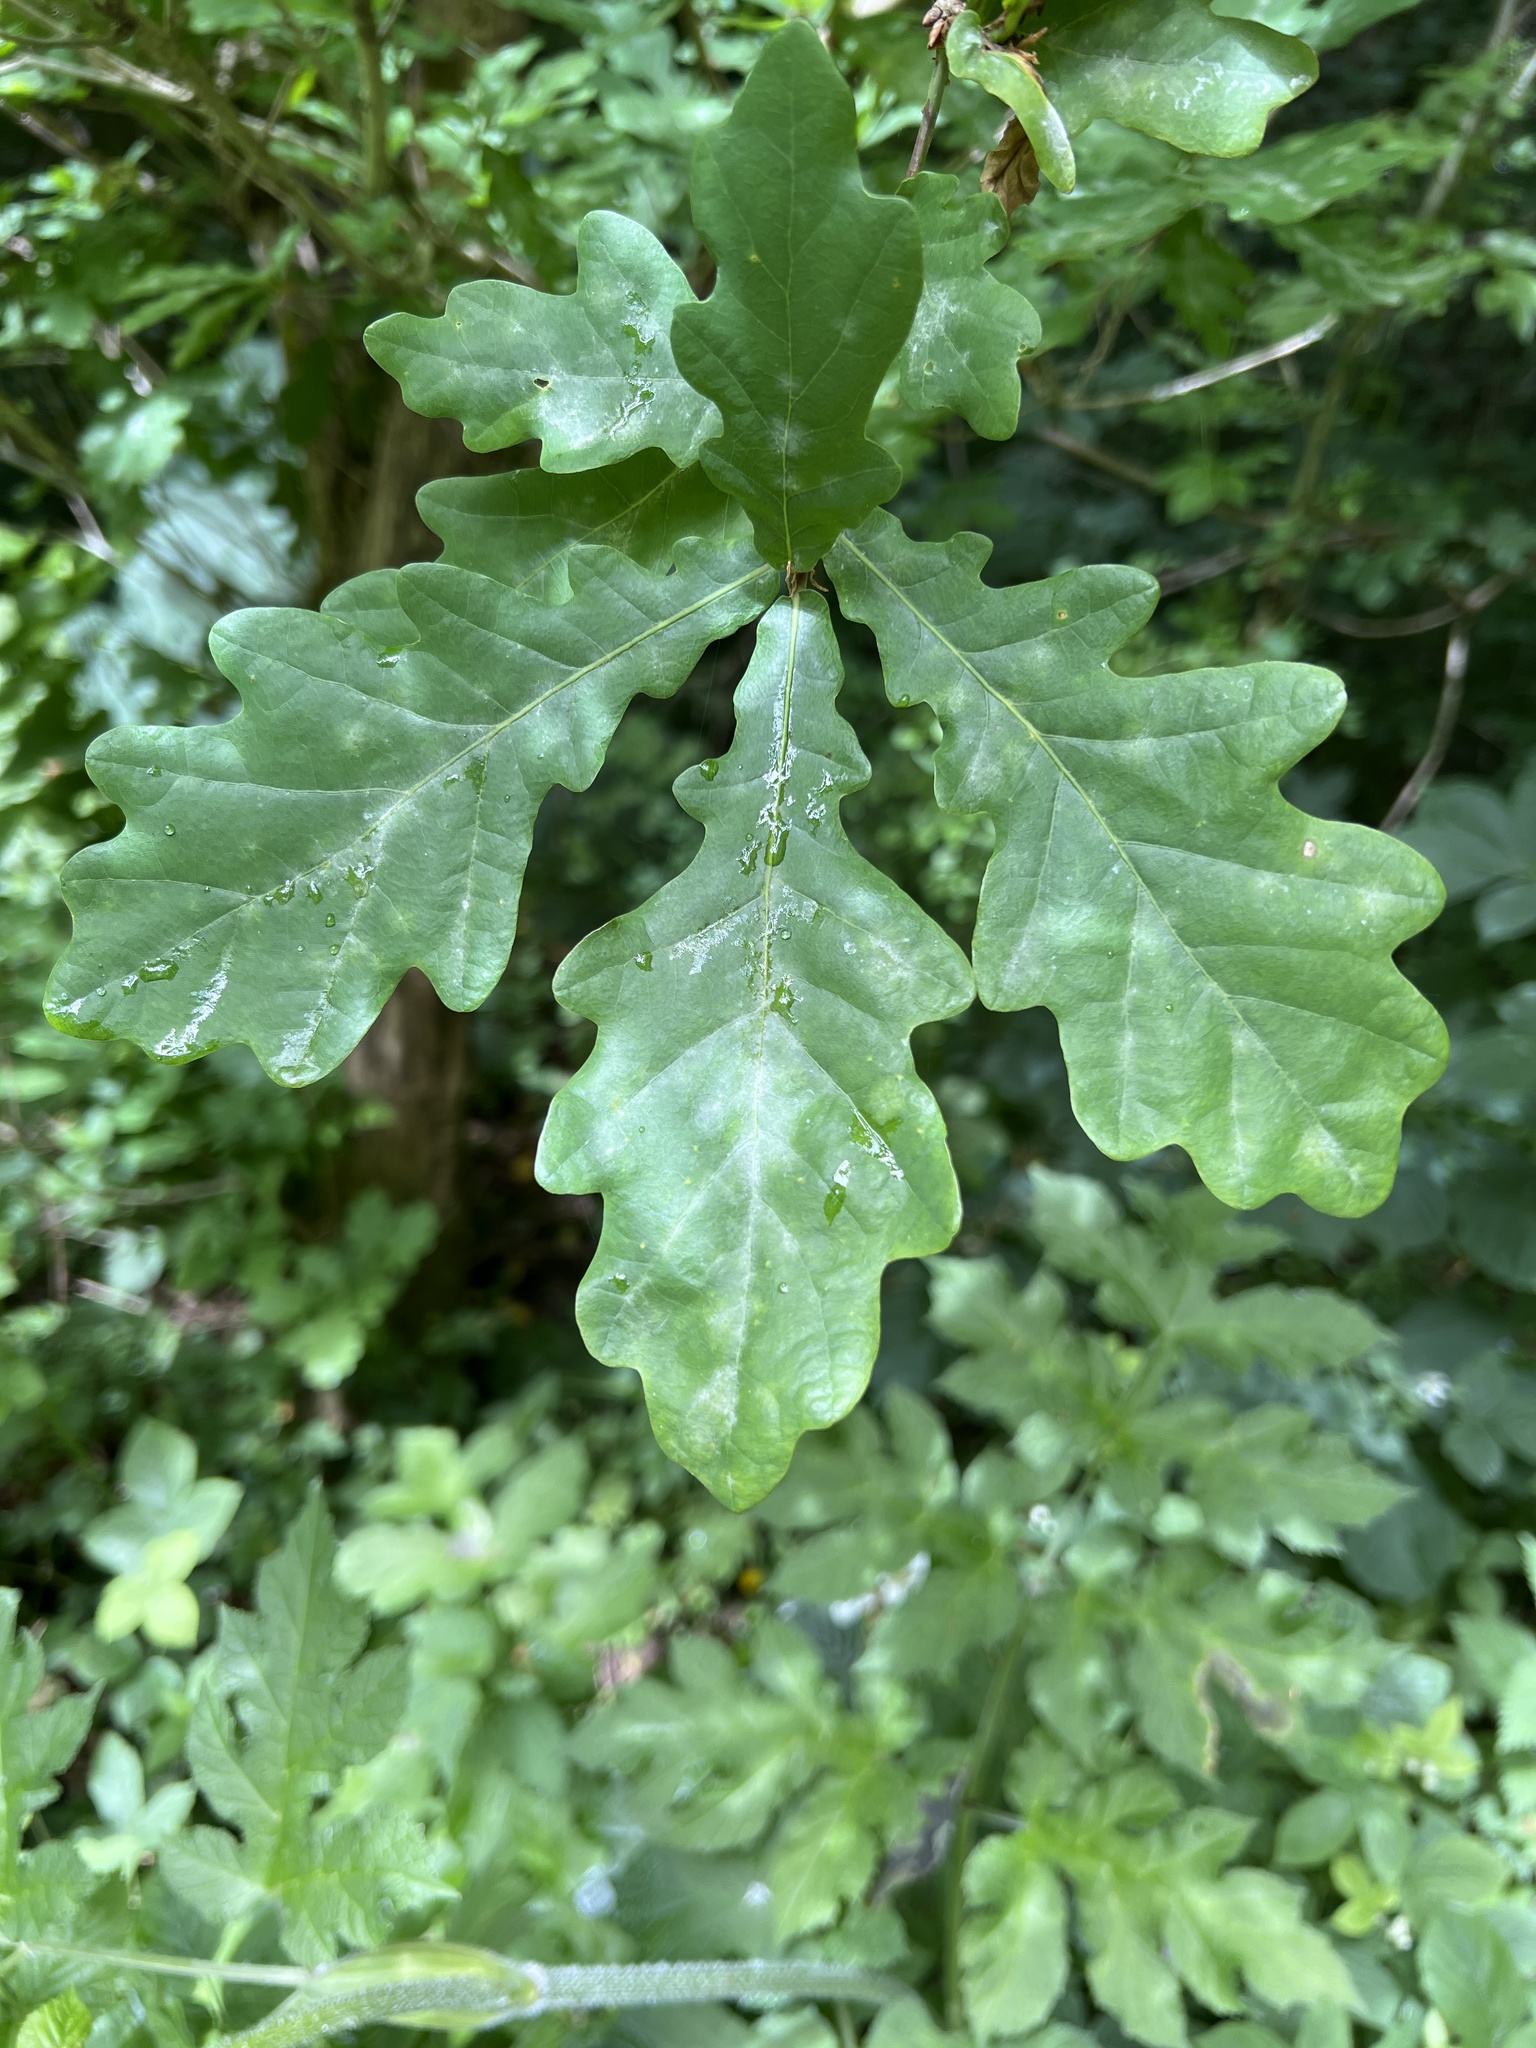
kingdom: Plantae
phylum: Tracheophyta
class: Magnoliopsida
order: Fagales
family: Fagaceae
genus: Quercus
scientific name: Quercus robur
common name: Pedunculate oak
